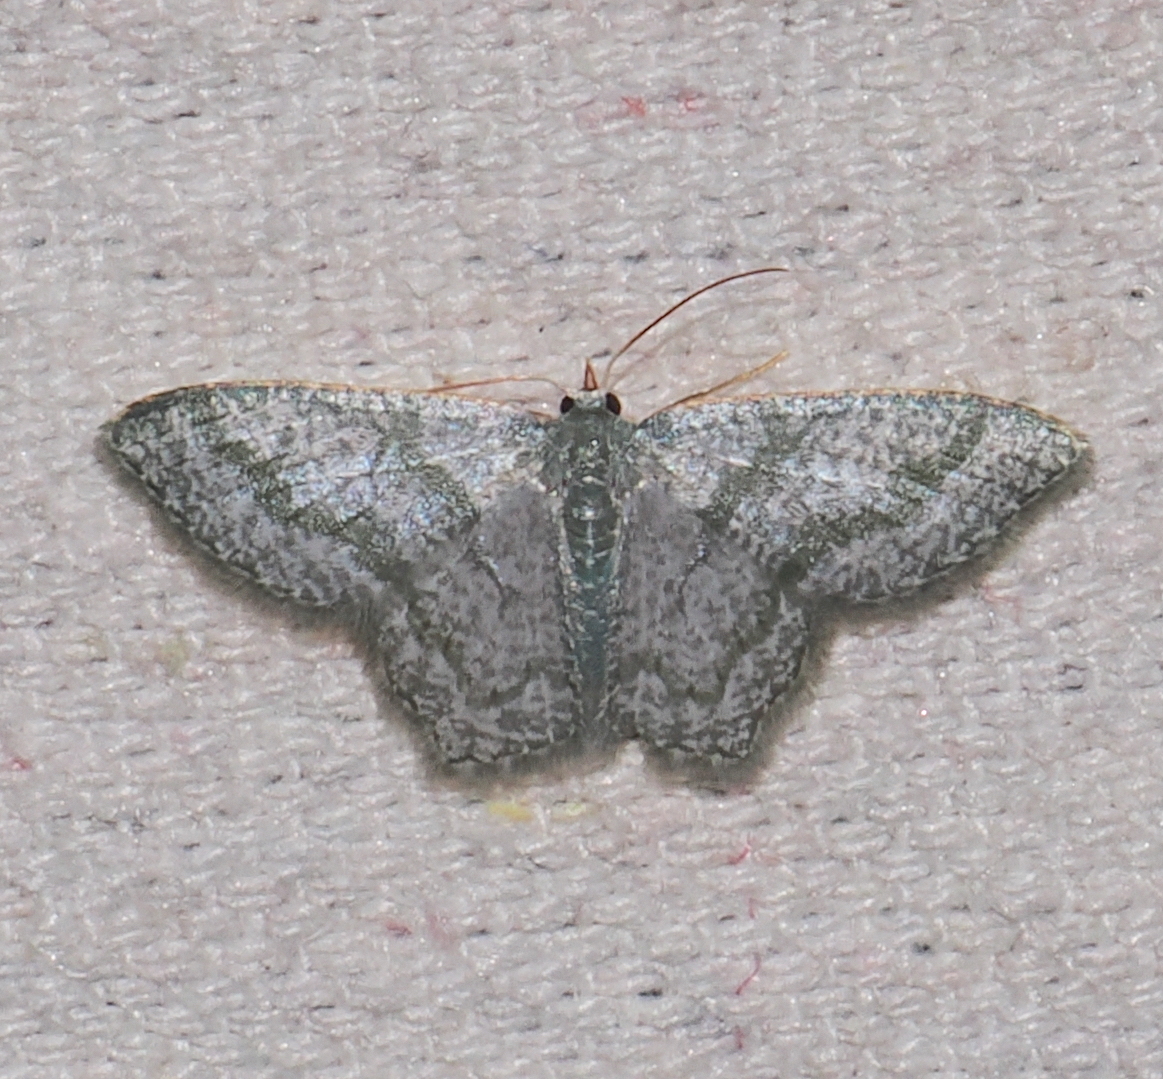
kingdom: Animalia
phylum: Arthropoda
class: Insecta
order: Lepidoptera
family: Geometridae
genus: Chloropteryx
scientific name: Chloropteryx opalaria
